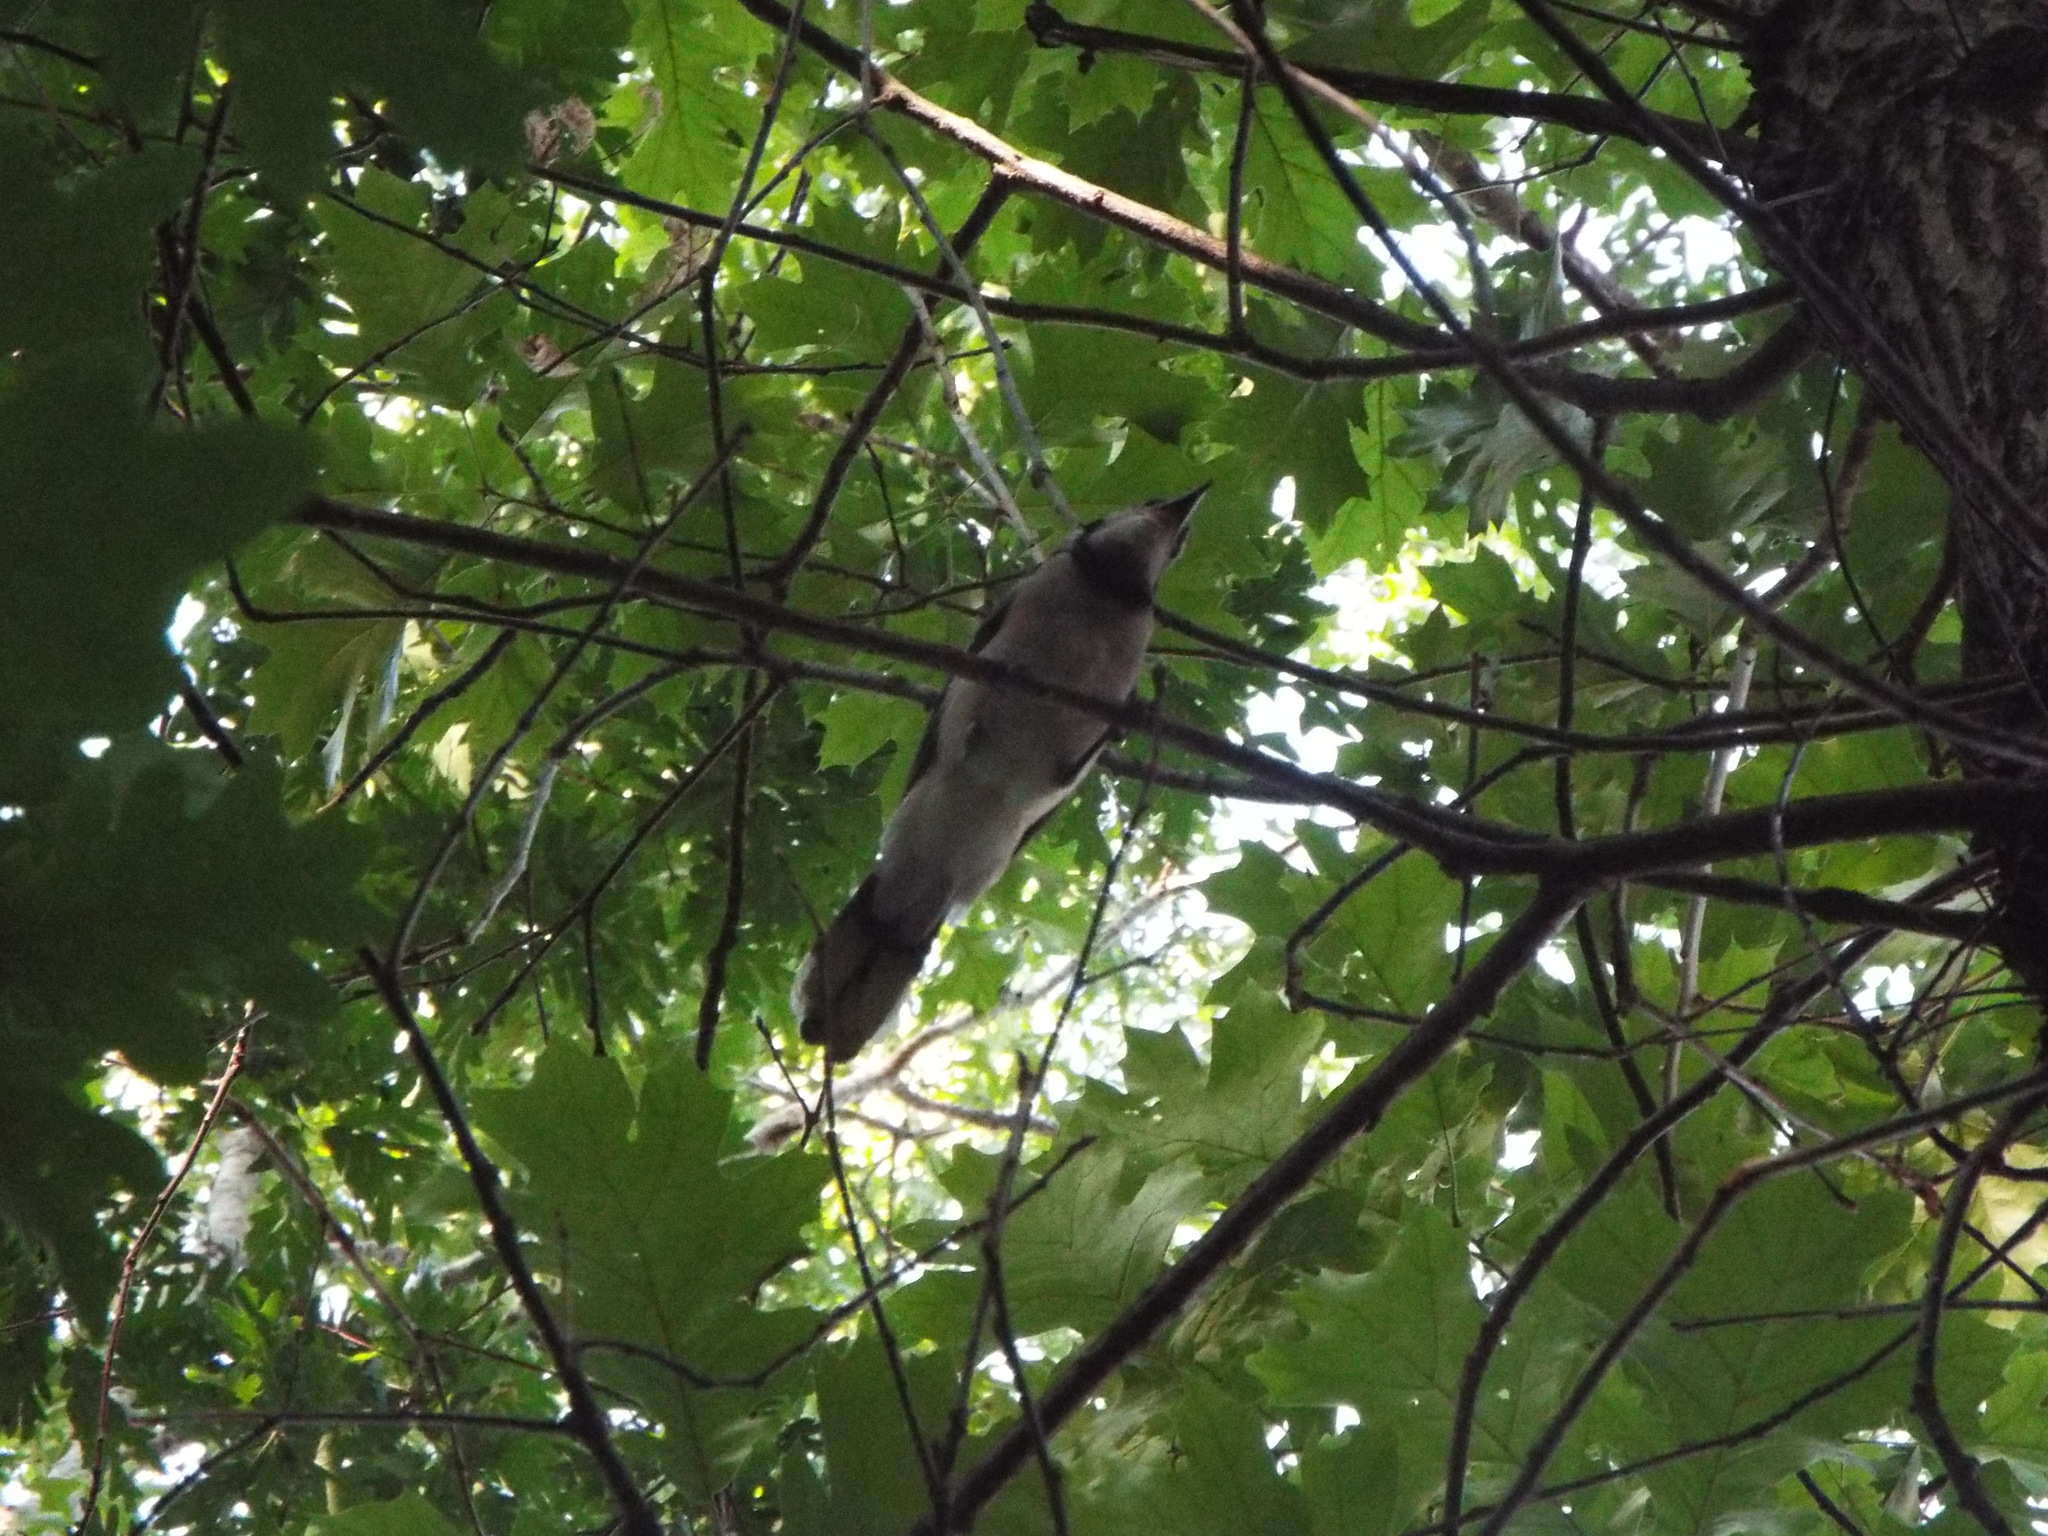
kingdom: Animalia
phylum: Chordata
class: Aves
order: Passeriformes
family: Corvidae
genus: Cyanocitta
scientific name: Cyanocitta cristata
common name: Blue jay
